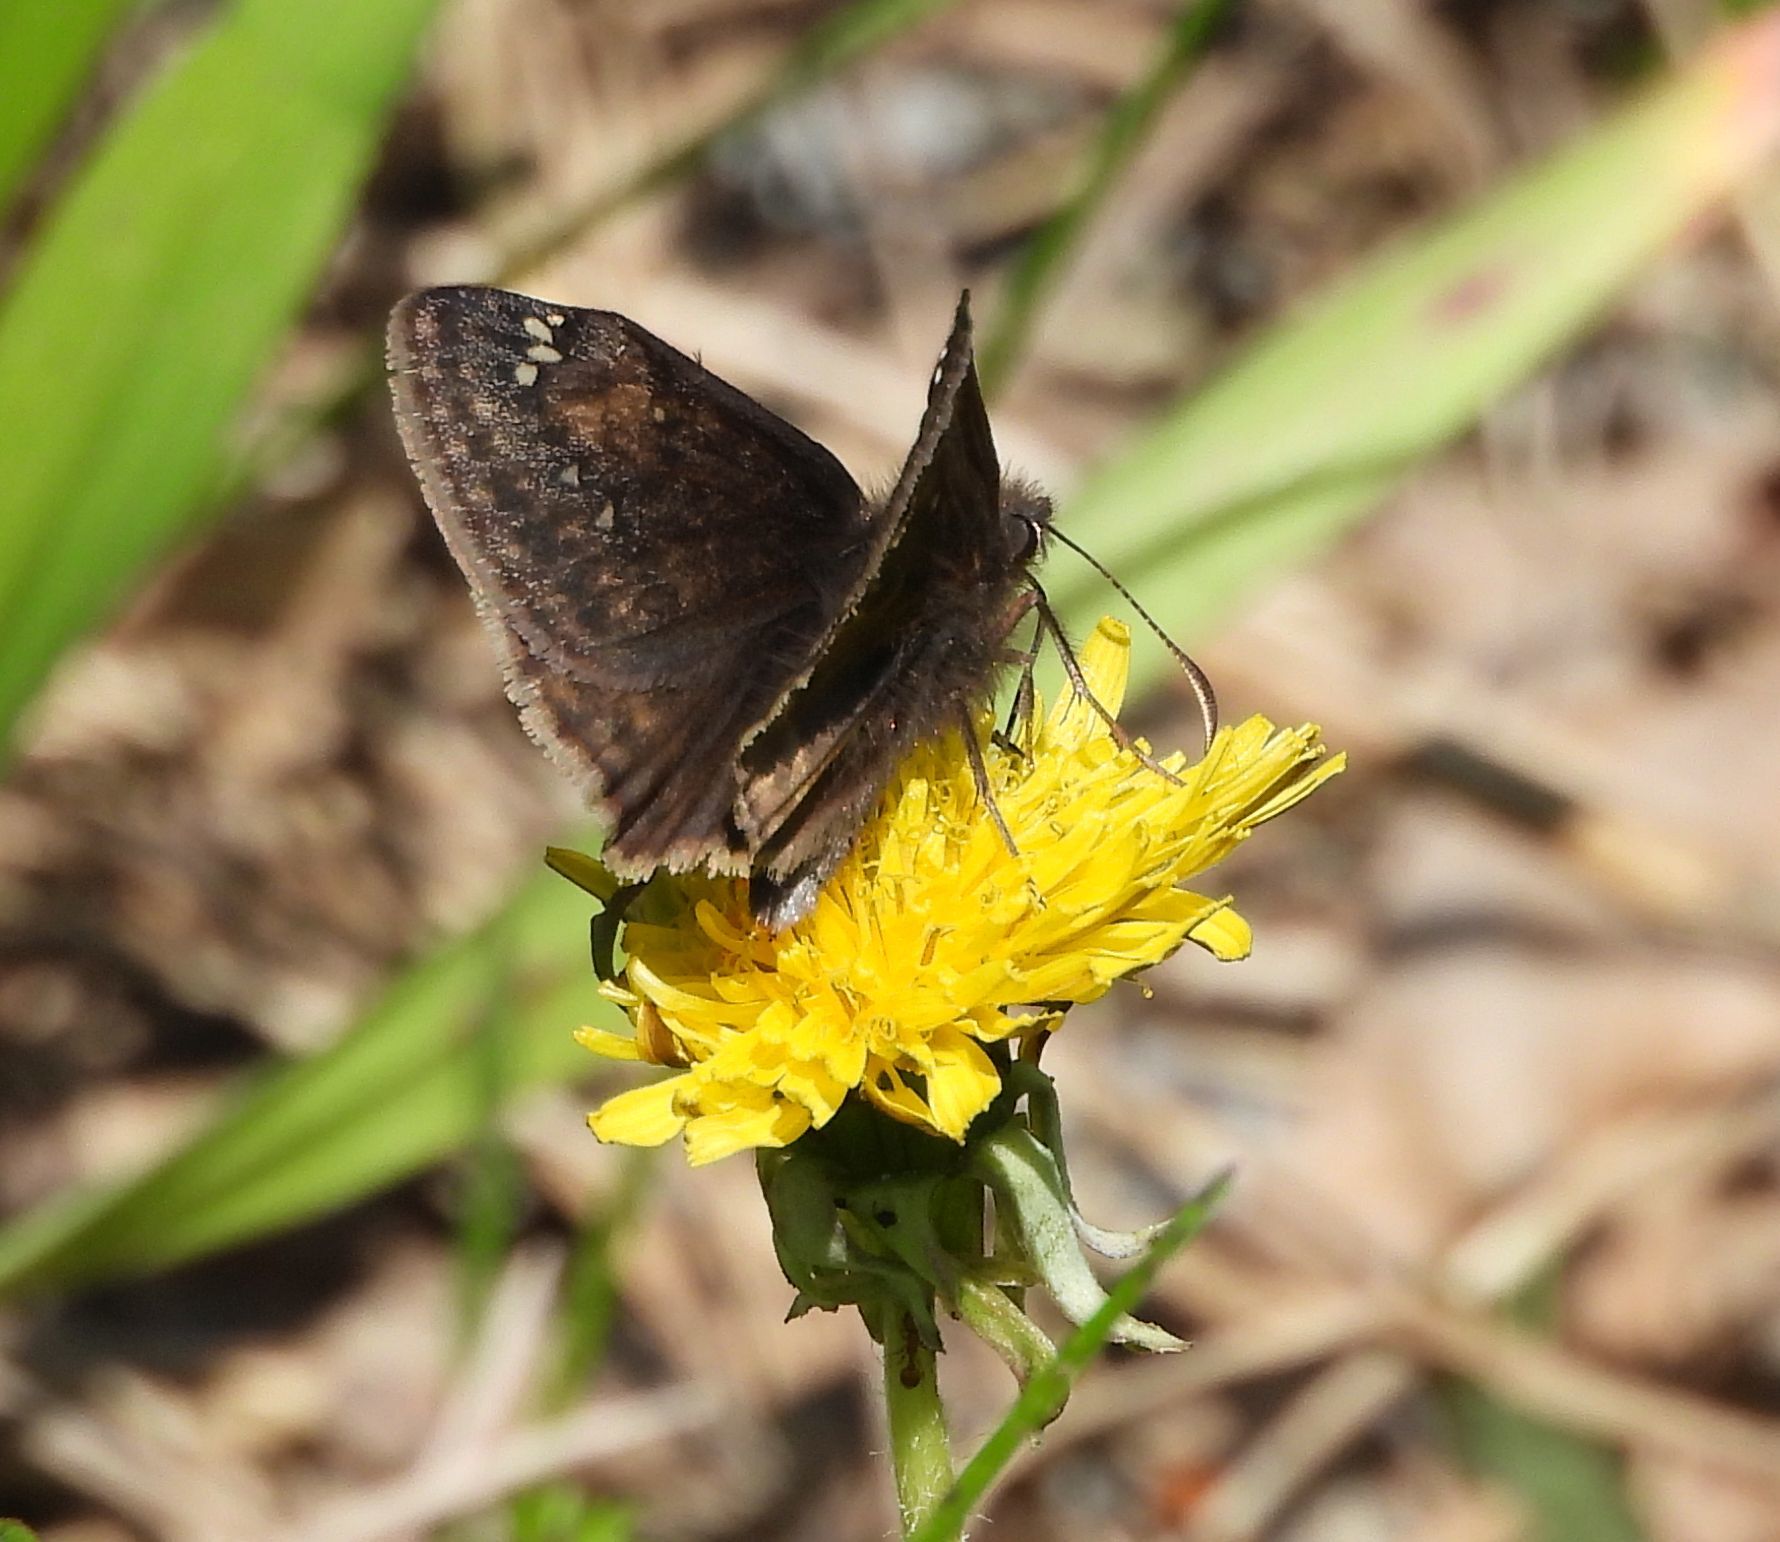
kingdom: Animalia
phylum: Arthropoda
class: Insecta
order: Lepidoptera
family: Hesperiidae
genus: Erynnis
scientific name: Erynnis juvenalis
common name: Juvenal's duskywing
